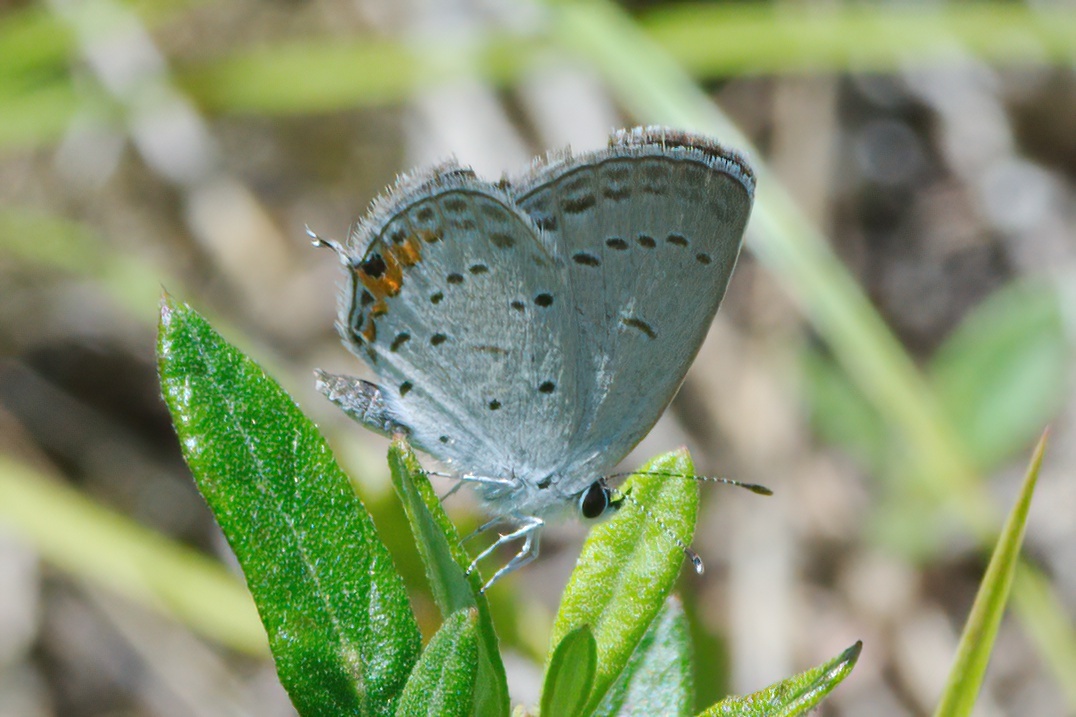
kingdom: Animalia
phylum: Arthropoda
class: Insecta
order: Lepidoptera
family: Lycaenidae
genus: Elkalyce
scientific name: Elkalyce comyntas
